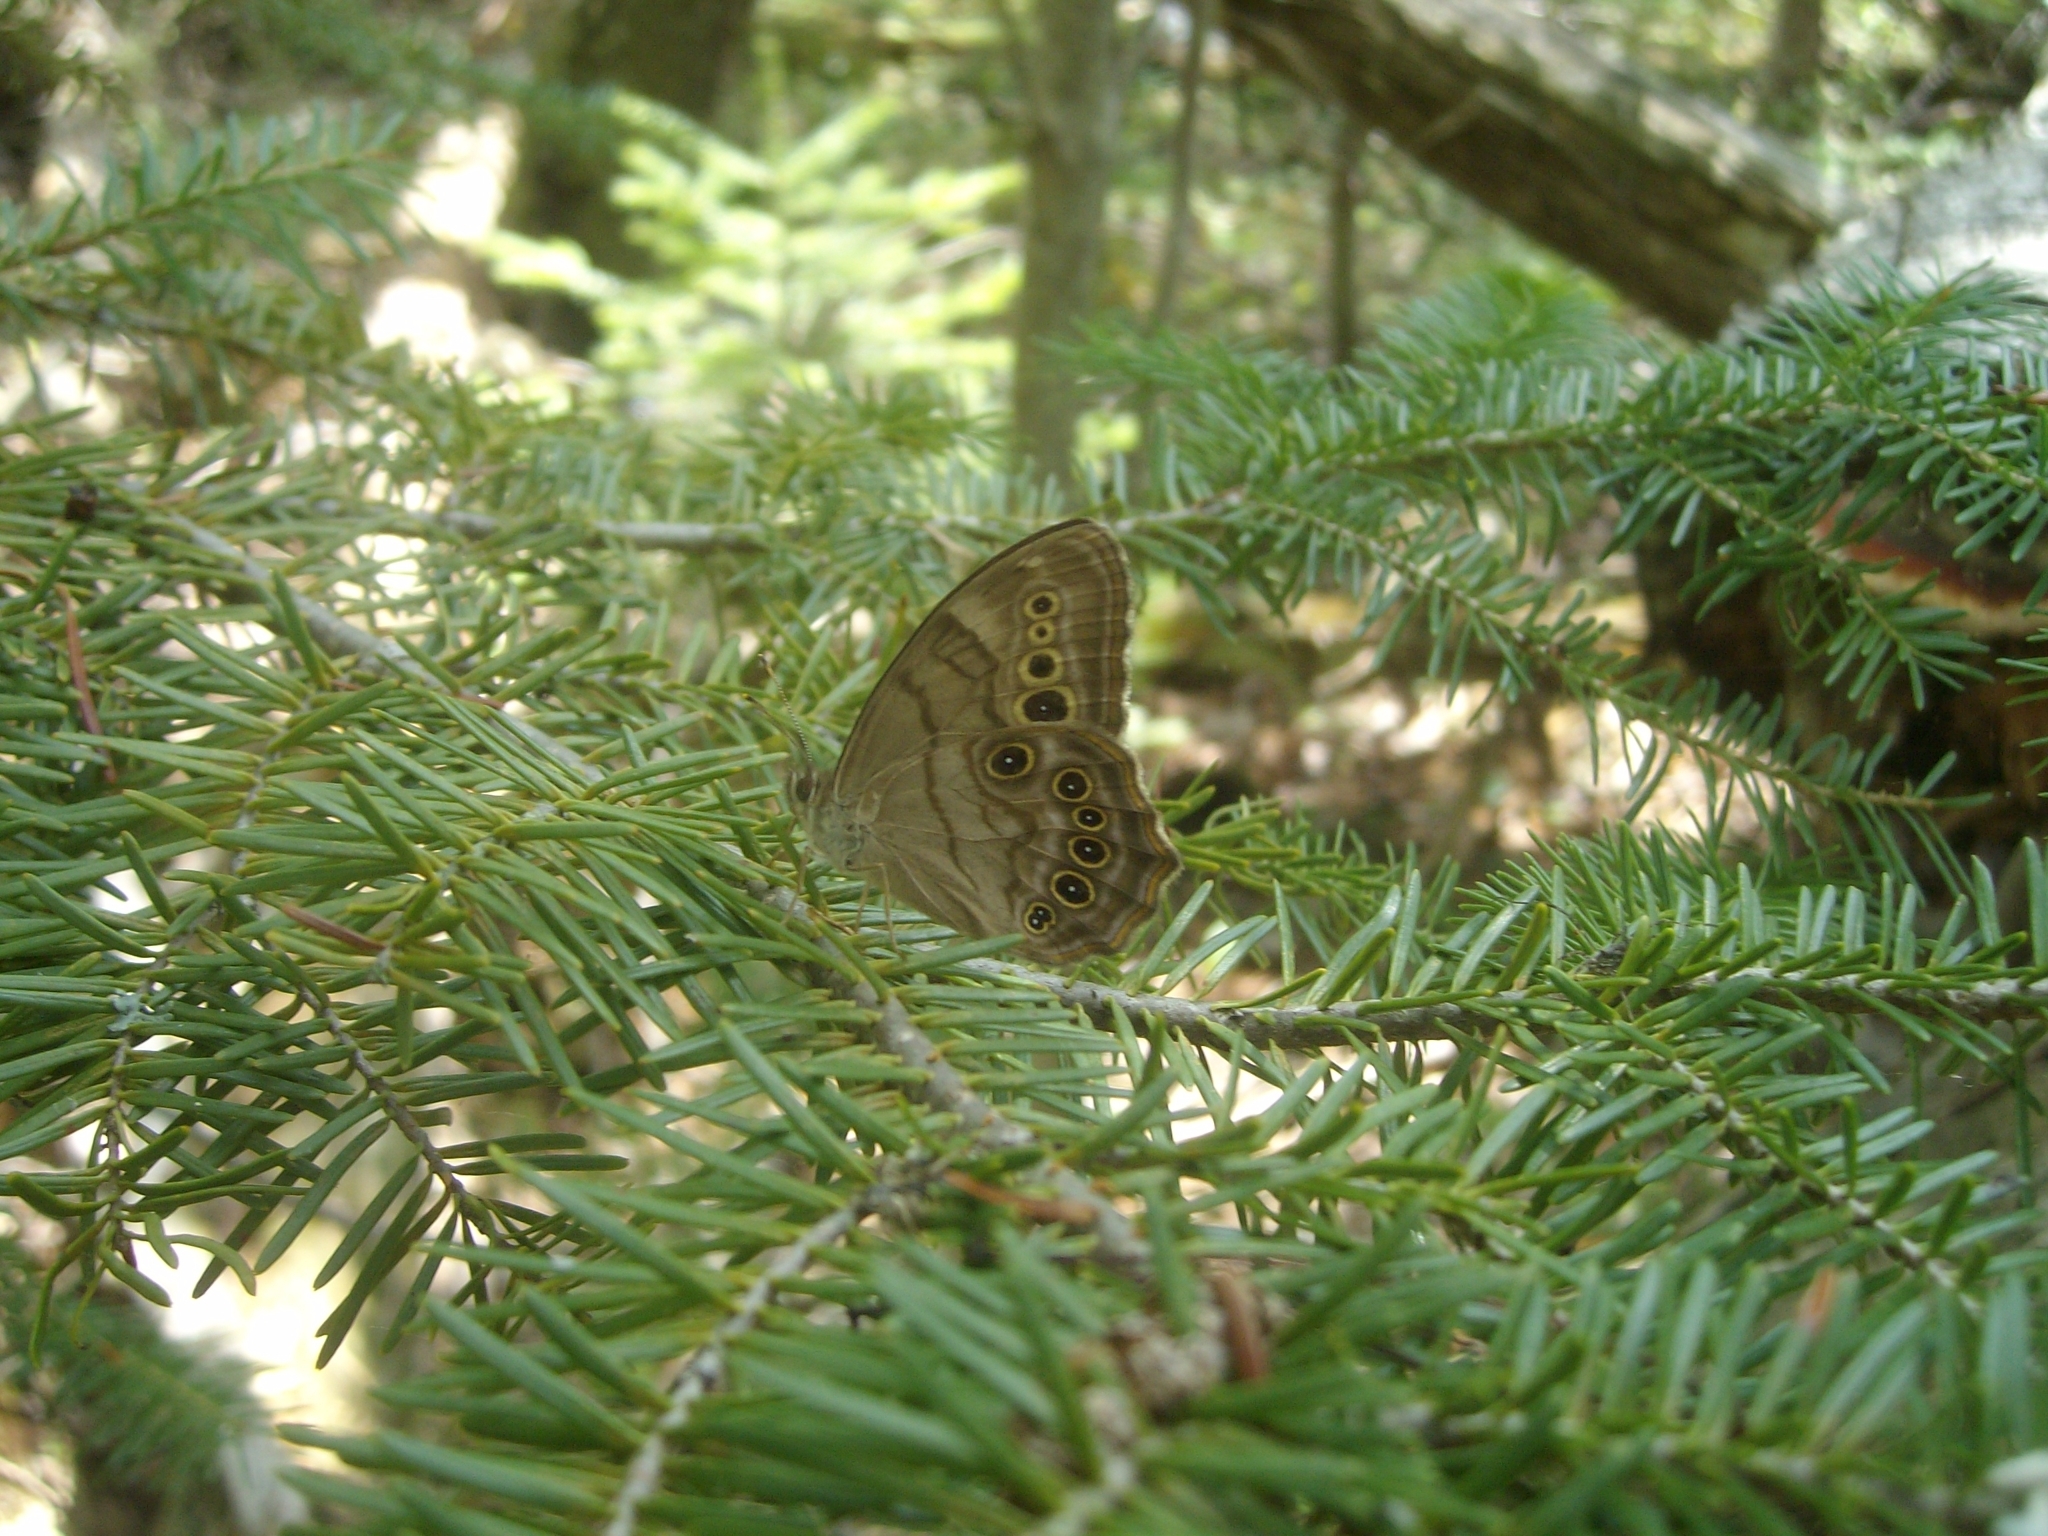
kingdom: Animalia
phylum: Arthropoda
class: Insecta
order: Lepidoptera
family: Nymphalidae
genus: Lethe
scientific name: Lethe anthedon
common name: Northern pearly-eye
